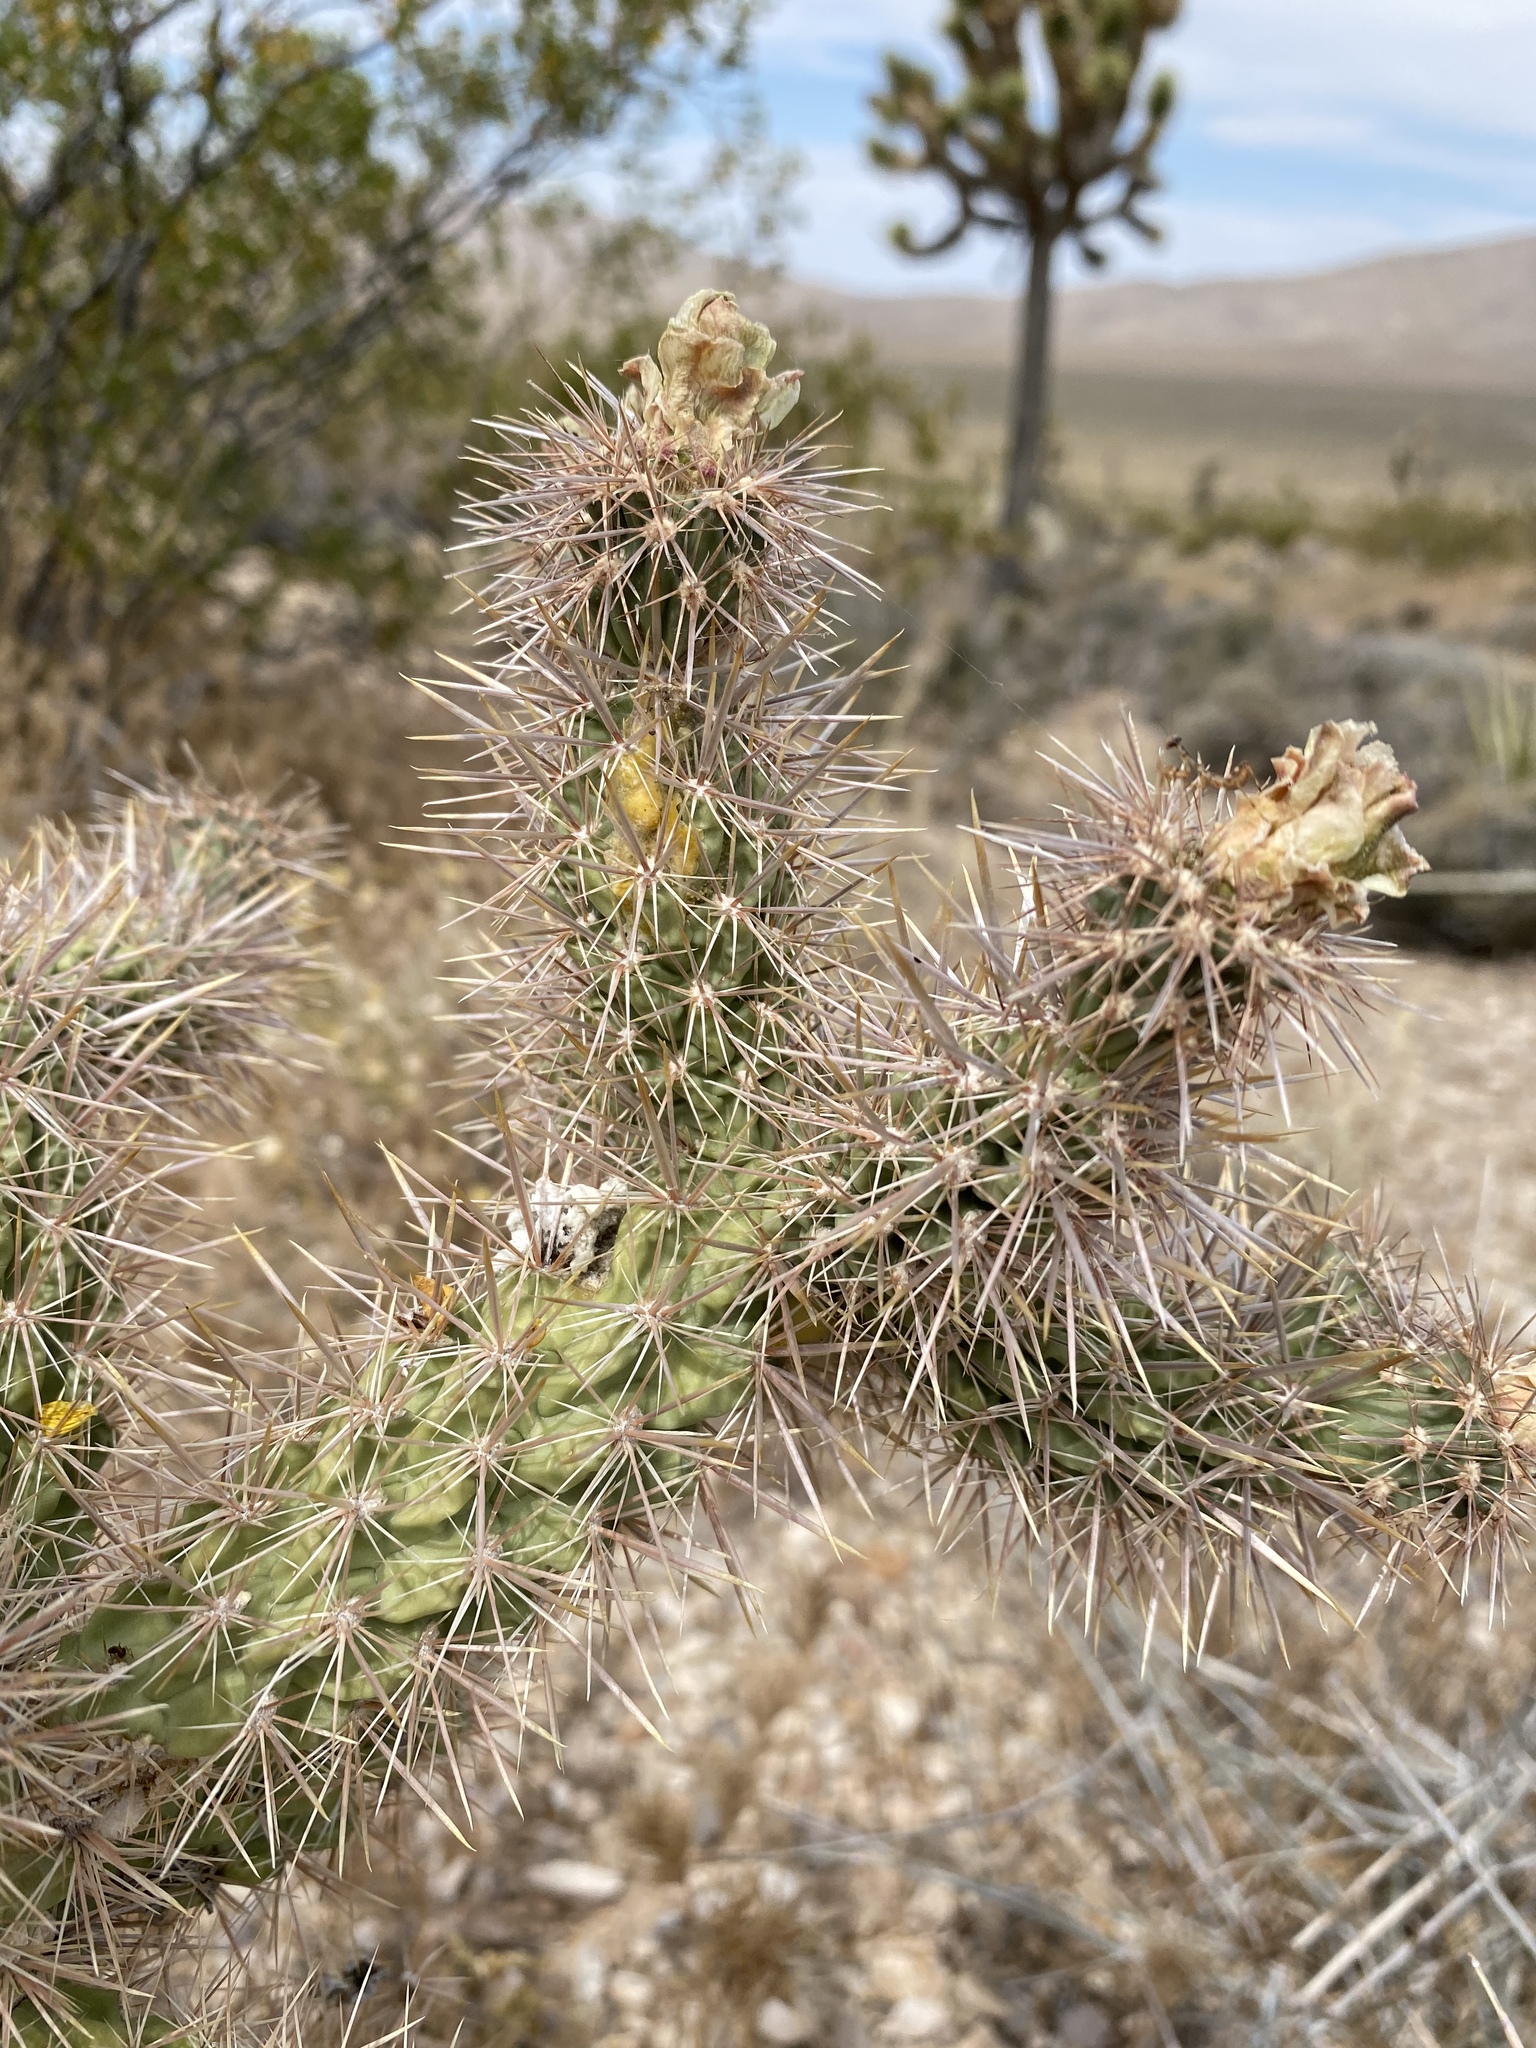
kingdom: Plantae
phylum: Tracheophyta
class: Magnoliopsida
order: Caryophyllales
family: Cactaceae
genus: Cylindropuntia
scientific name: Cylindropuntia echinocarpa
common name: Ground cholla
